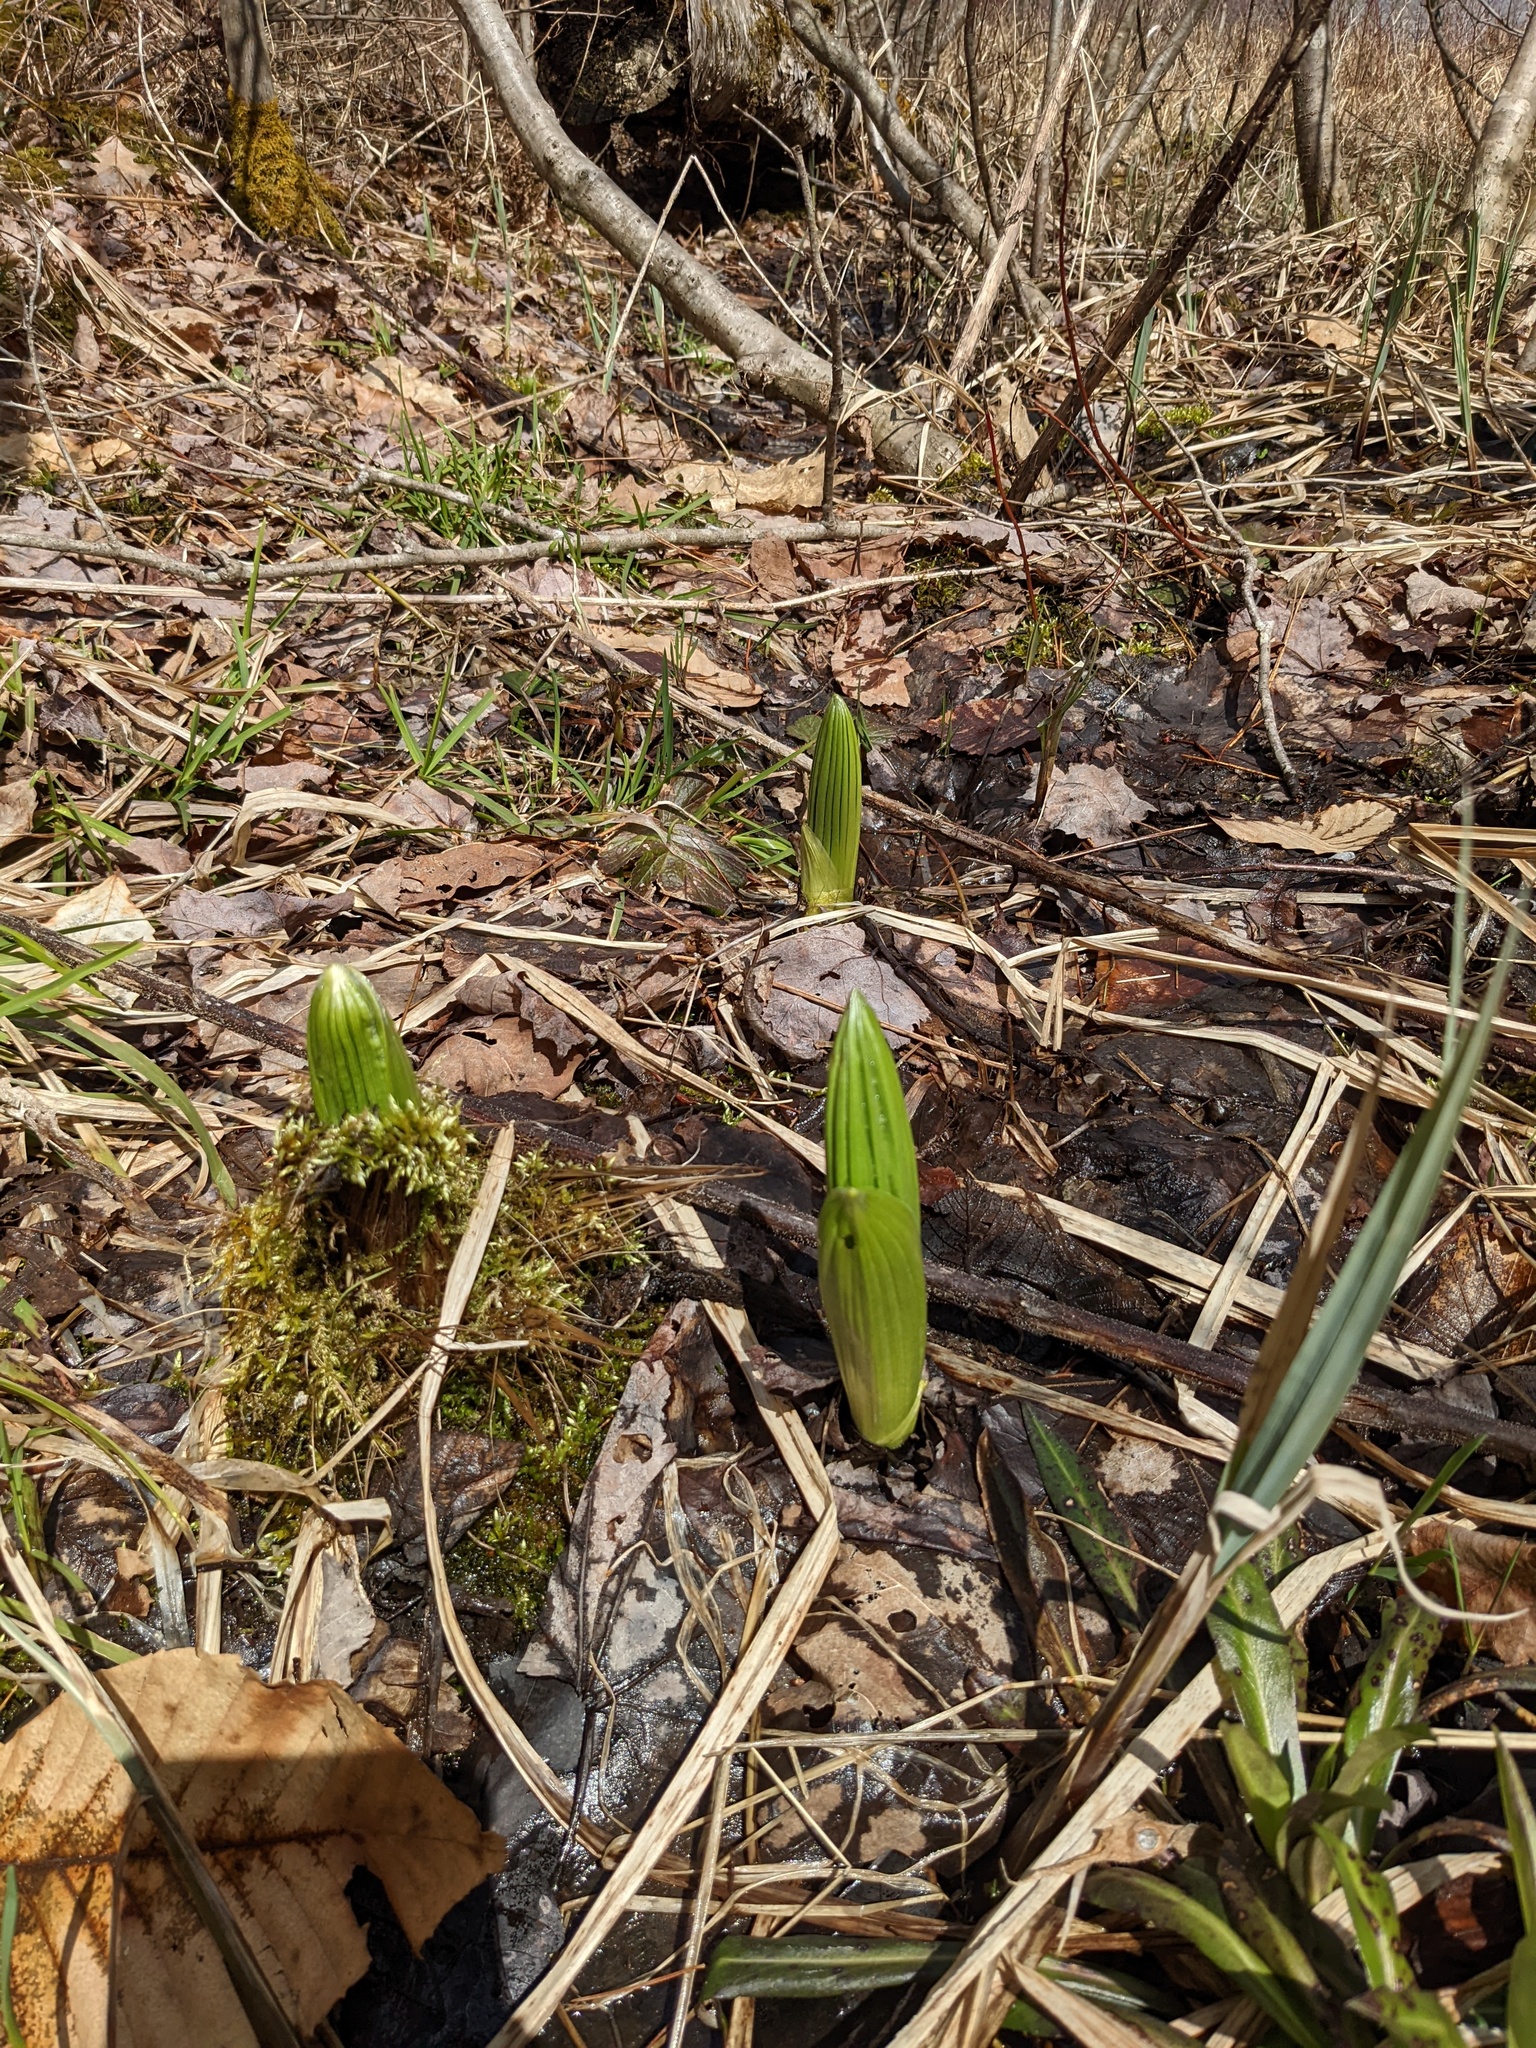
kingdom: Plantae
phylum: Tracheophyta
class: Liliopsida
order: Liliales
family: Melanthiaceae
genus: Veratrum
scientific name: Veratrum viride
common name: American false hellebore
